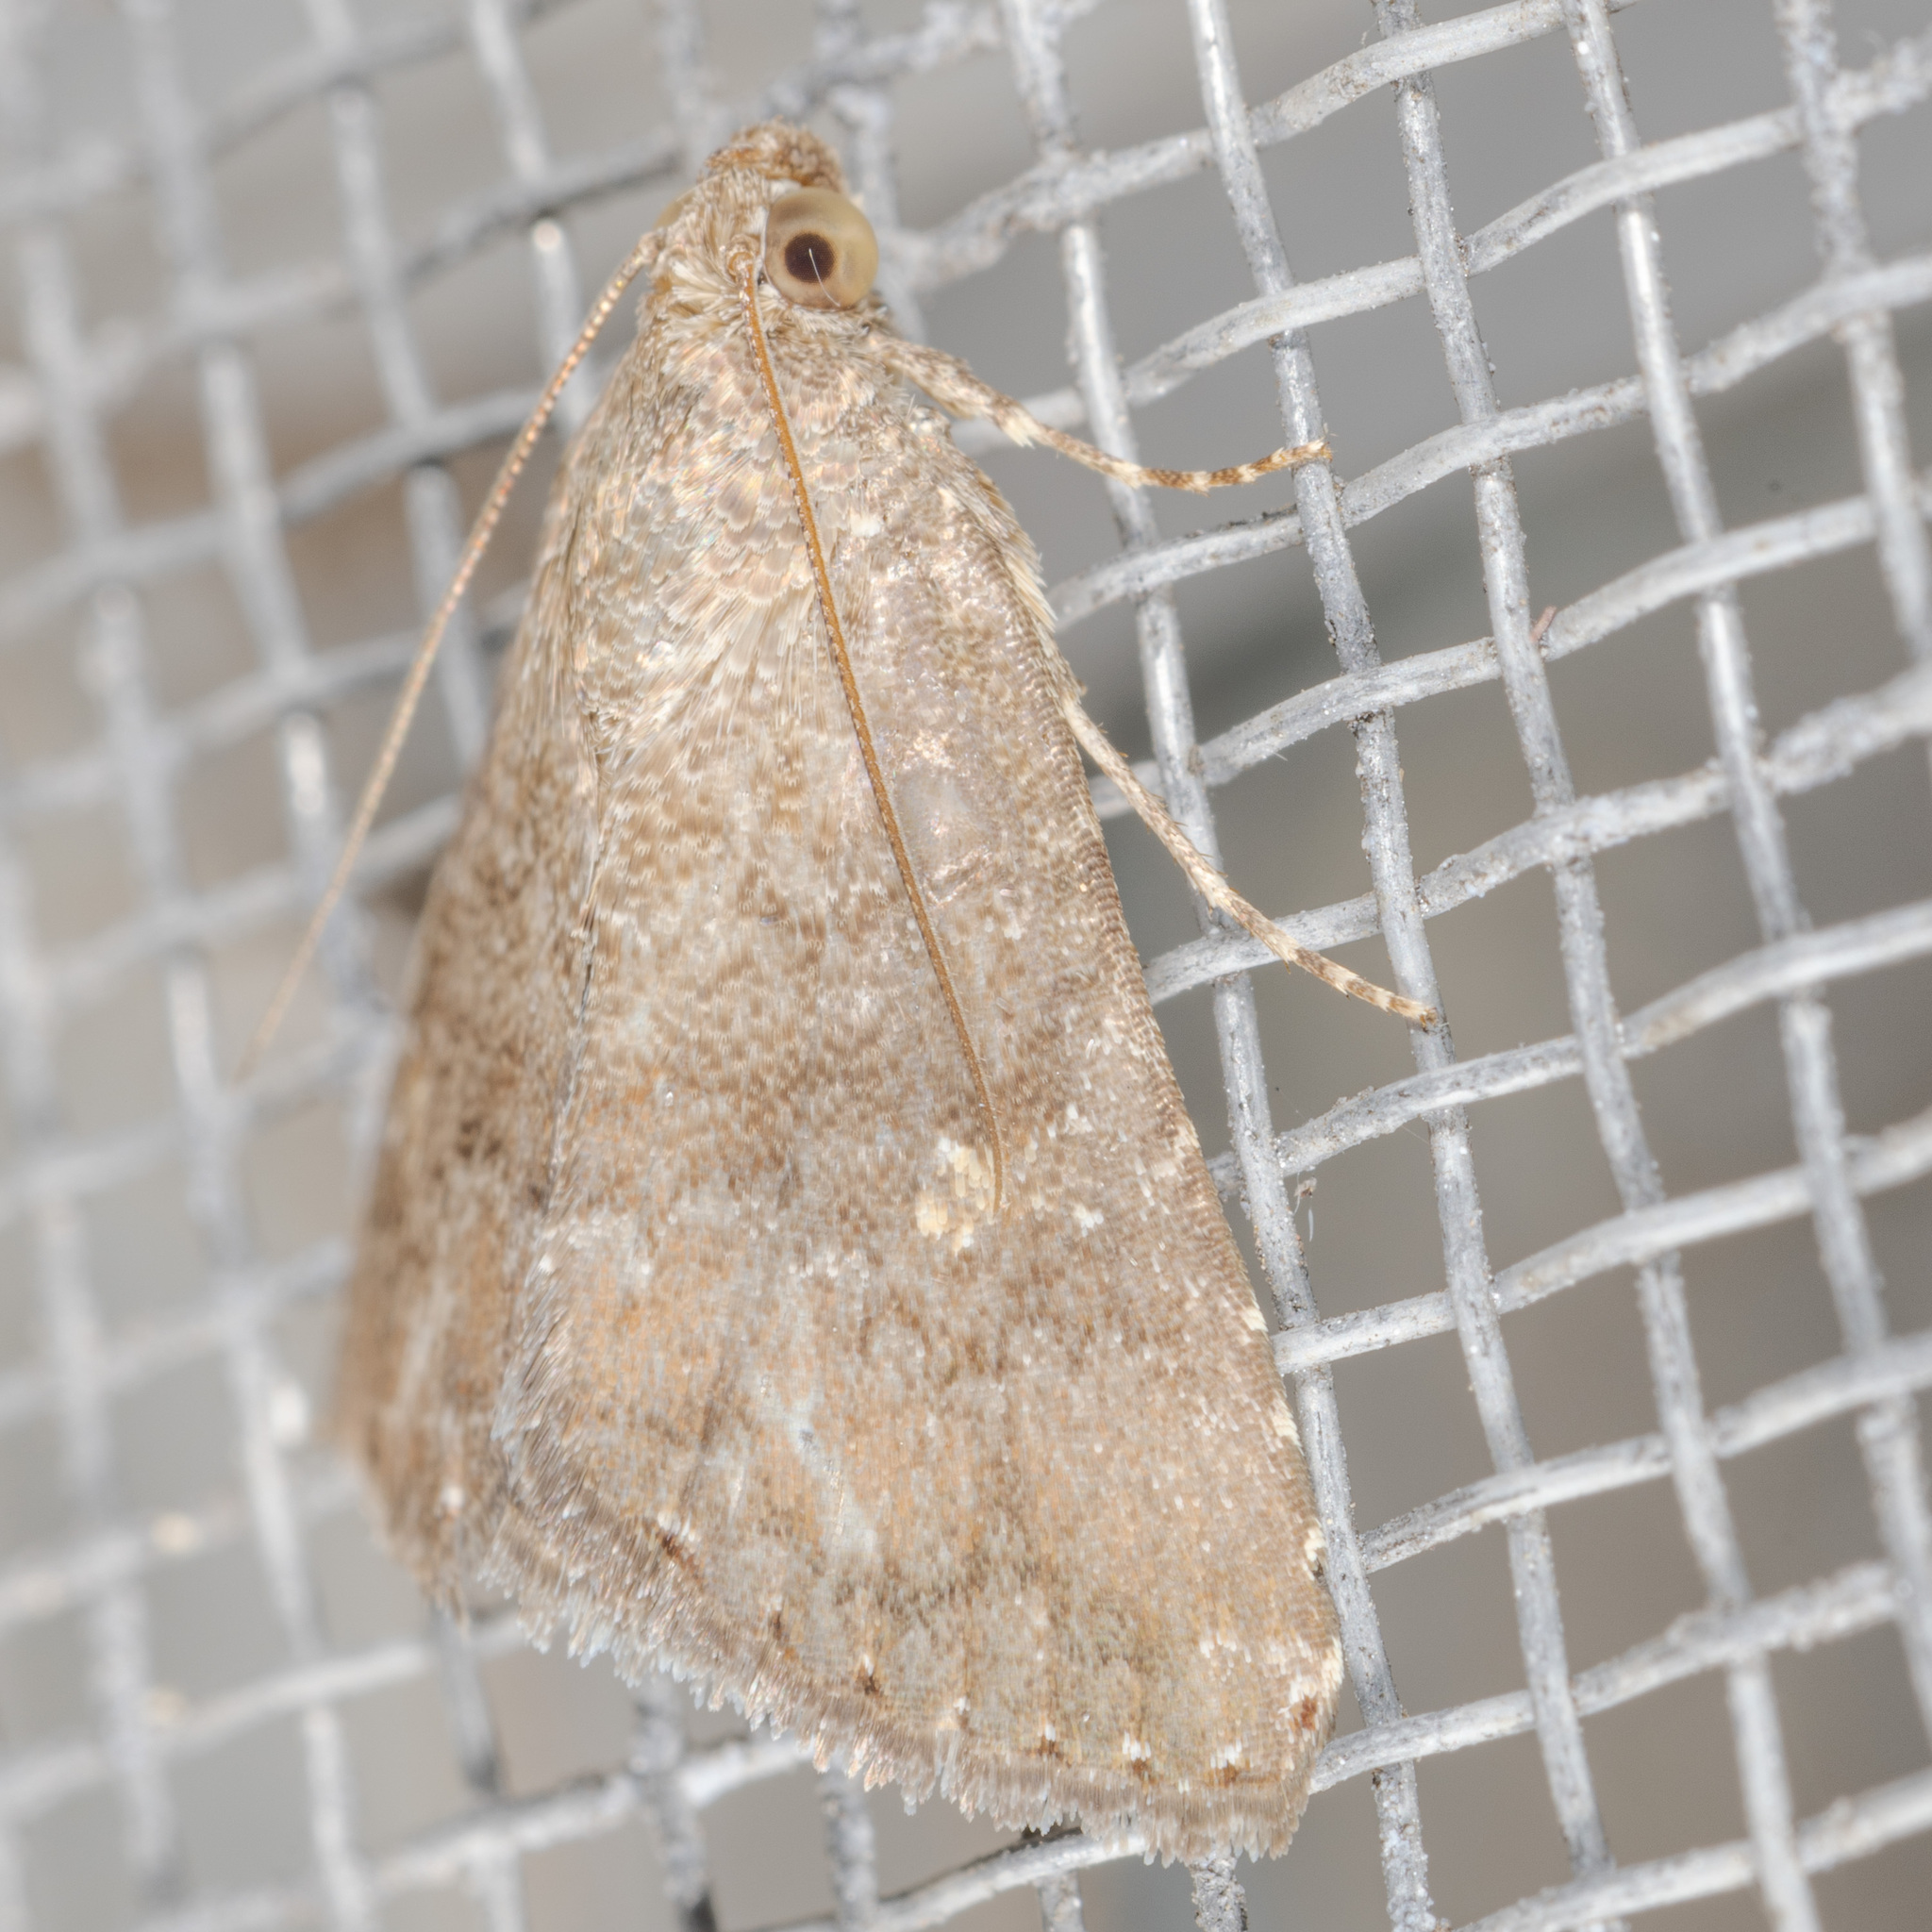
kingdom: Animalia
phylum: Arthropoda
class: Insecta
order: Lepidoptera
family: Noctuidae
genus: Amyna
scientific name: Amyna stricta
